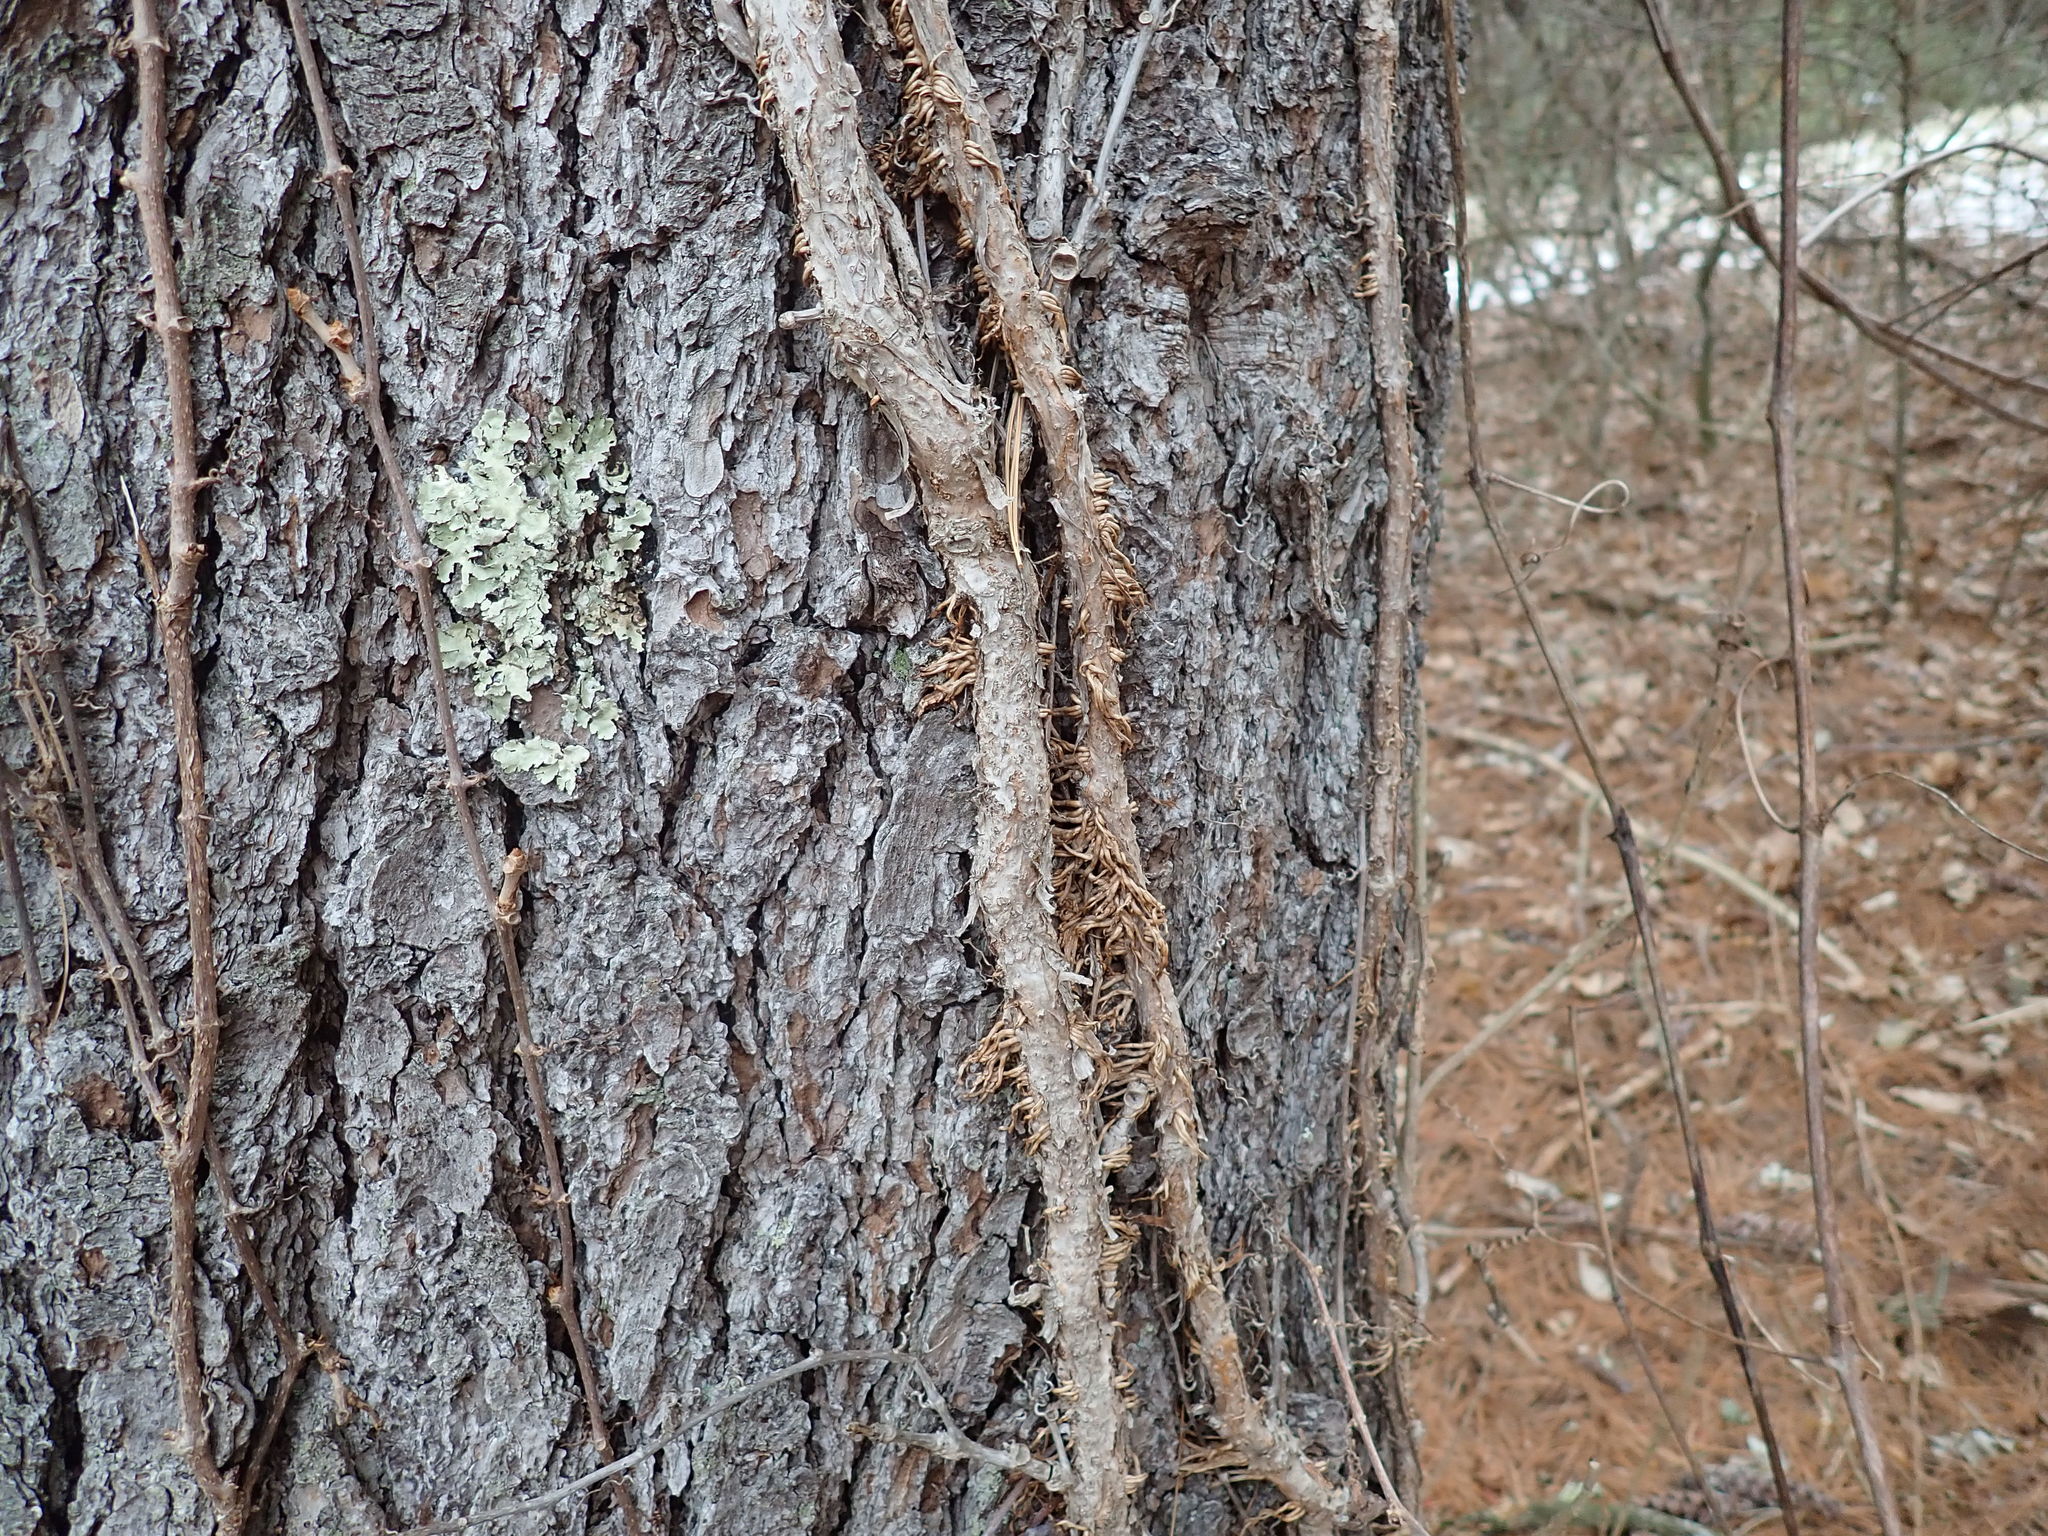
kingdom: Plantae
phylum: Tracheophyta
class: Magnoliopsida
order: Vitales
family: Vitaceae
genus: Parthenocissus
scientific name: Parthenocissus quinquefolia
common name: Virginia-creeper
